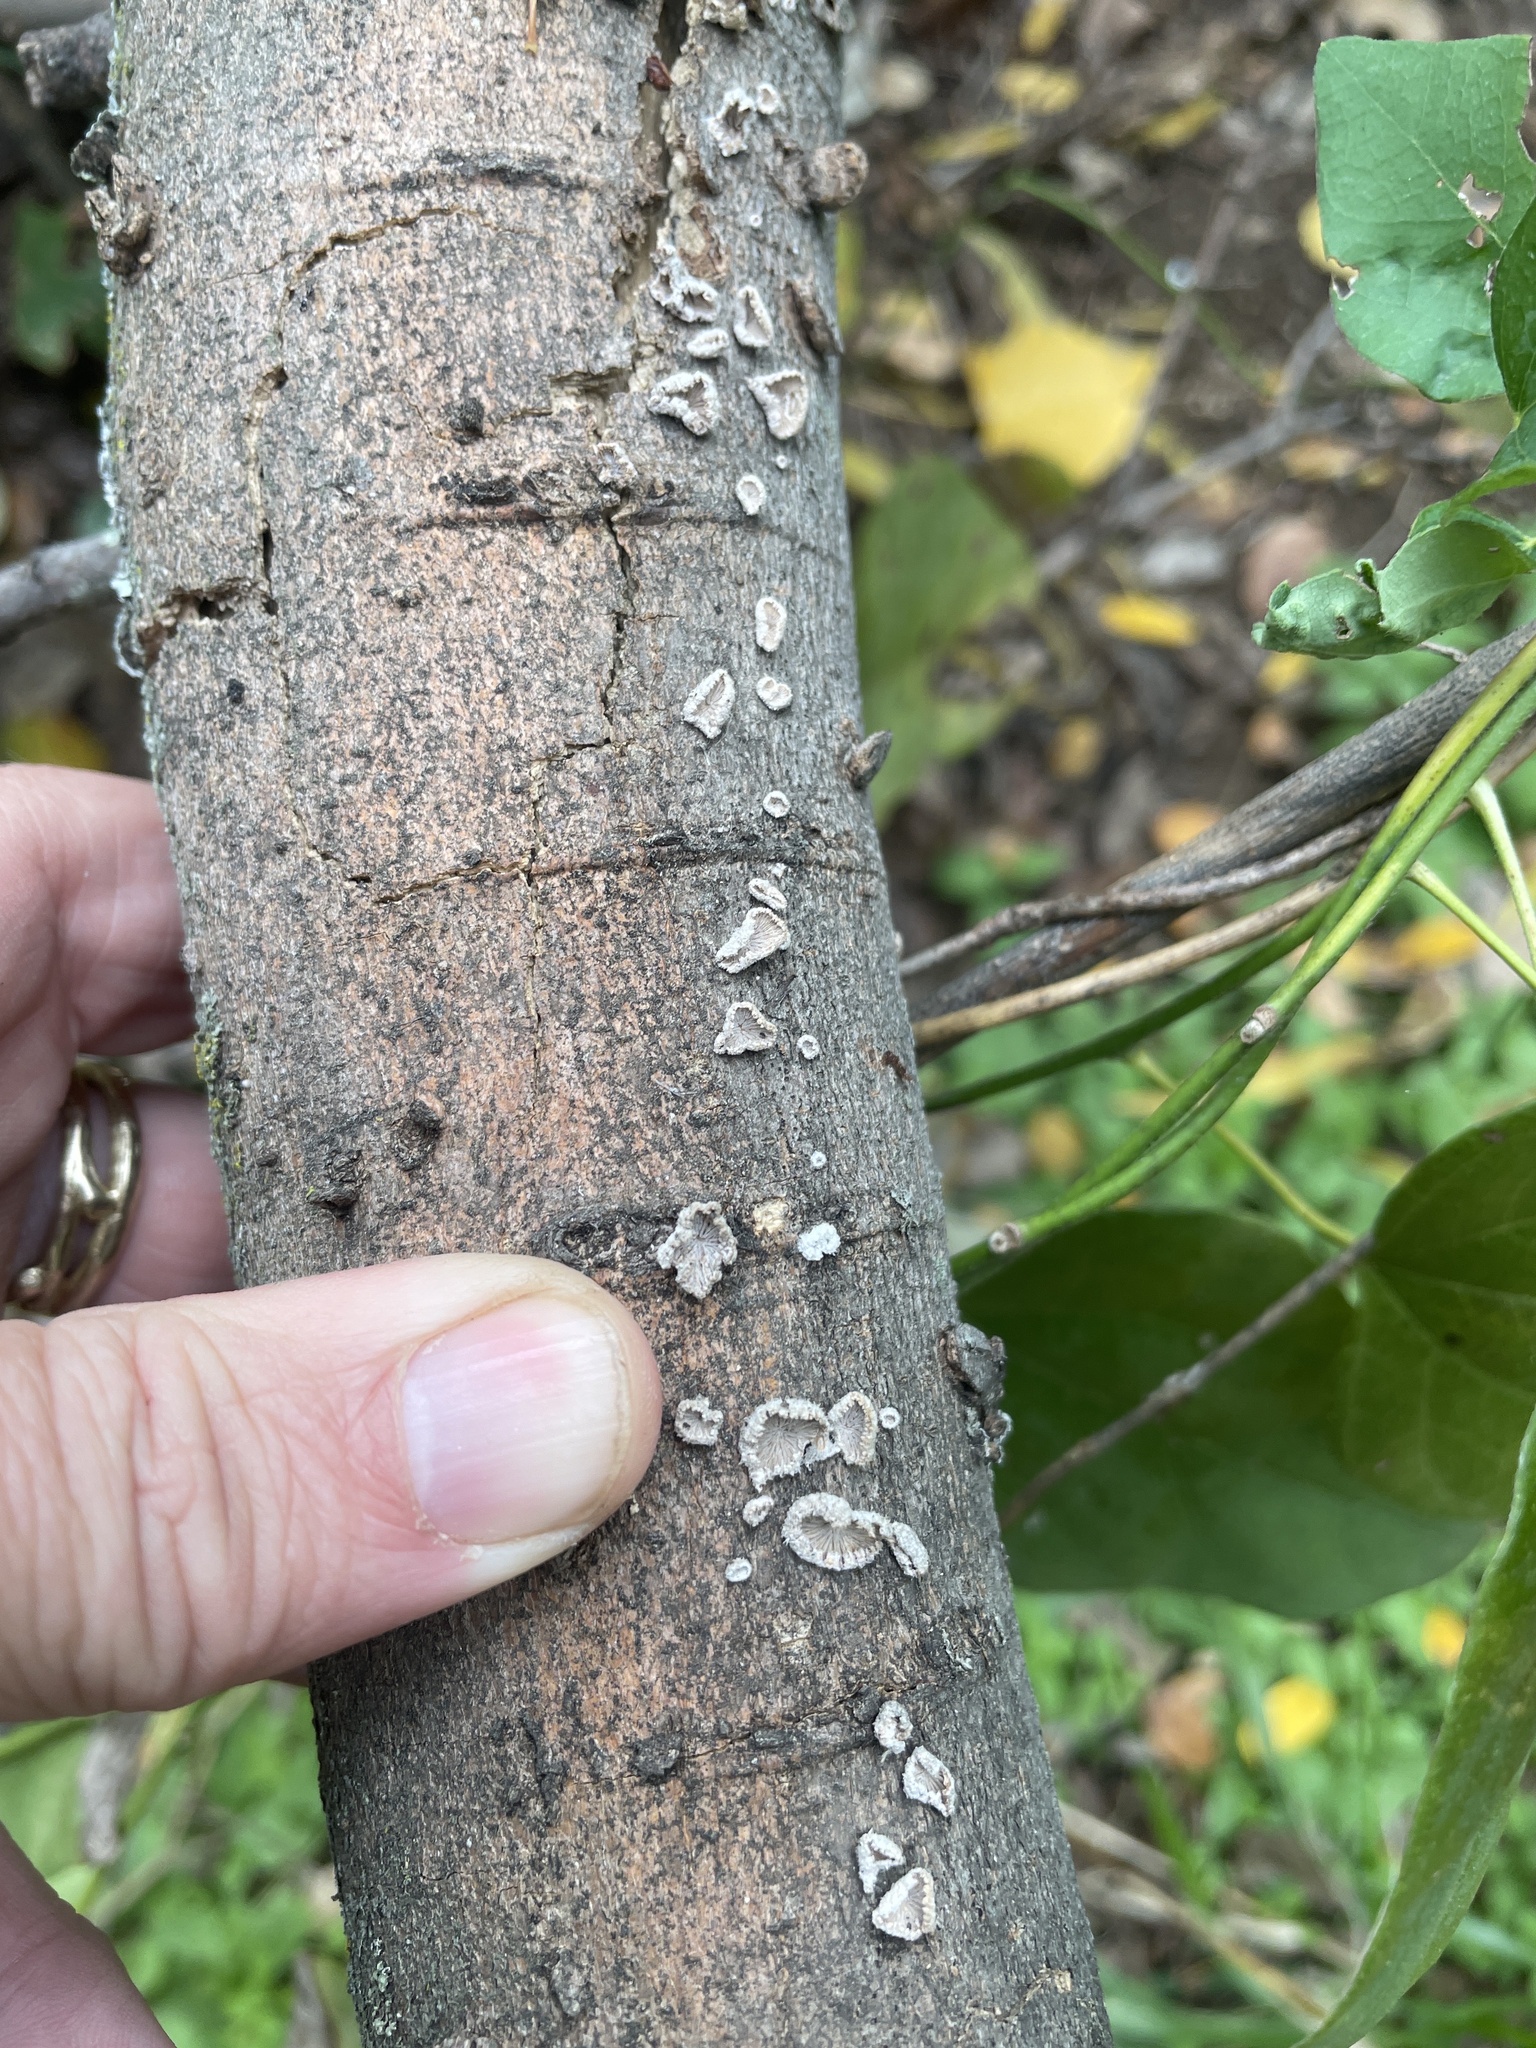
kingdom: Fungi
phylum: Basidiomycota
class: Agaricomycetes
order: Agaricales
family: Schizophyllaceae
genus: Schizophyllum
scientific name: Schizophyllum commune
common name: Common porecrust
